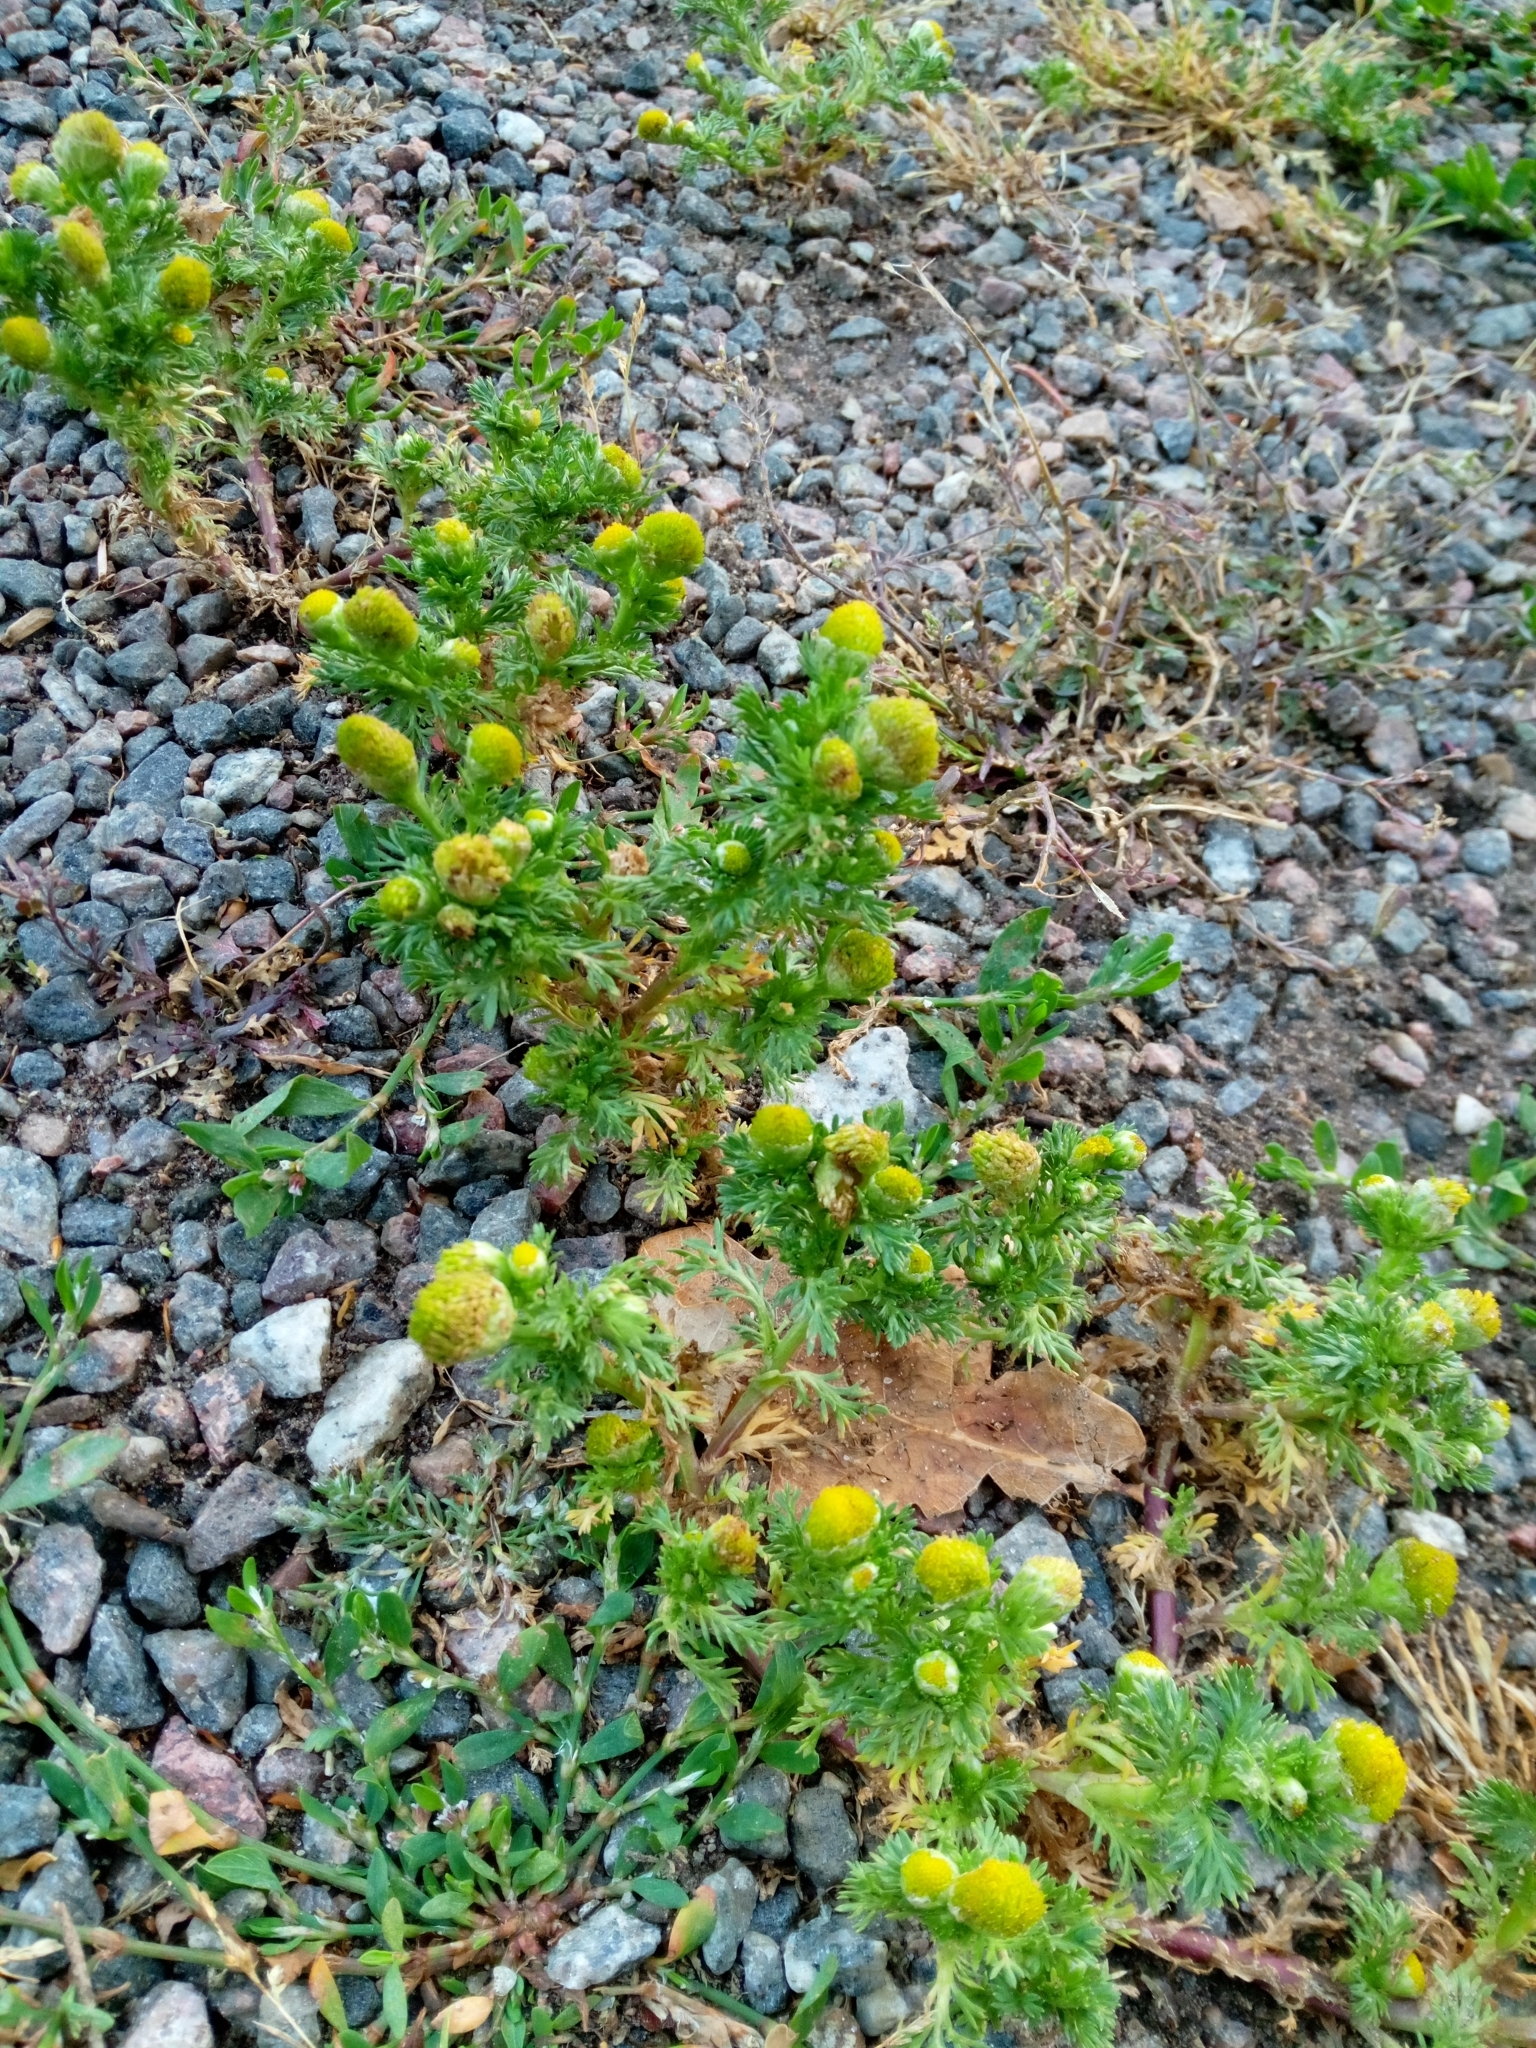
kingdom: Plantae
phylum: Tracheophyta
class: Magnoliopsida
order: Asterales
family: Asteraceae
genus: Matricaria
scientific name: Matricaria discoidea
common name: Disc mayweed
